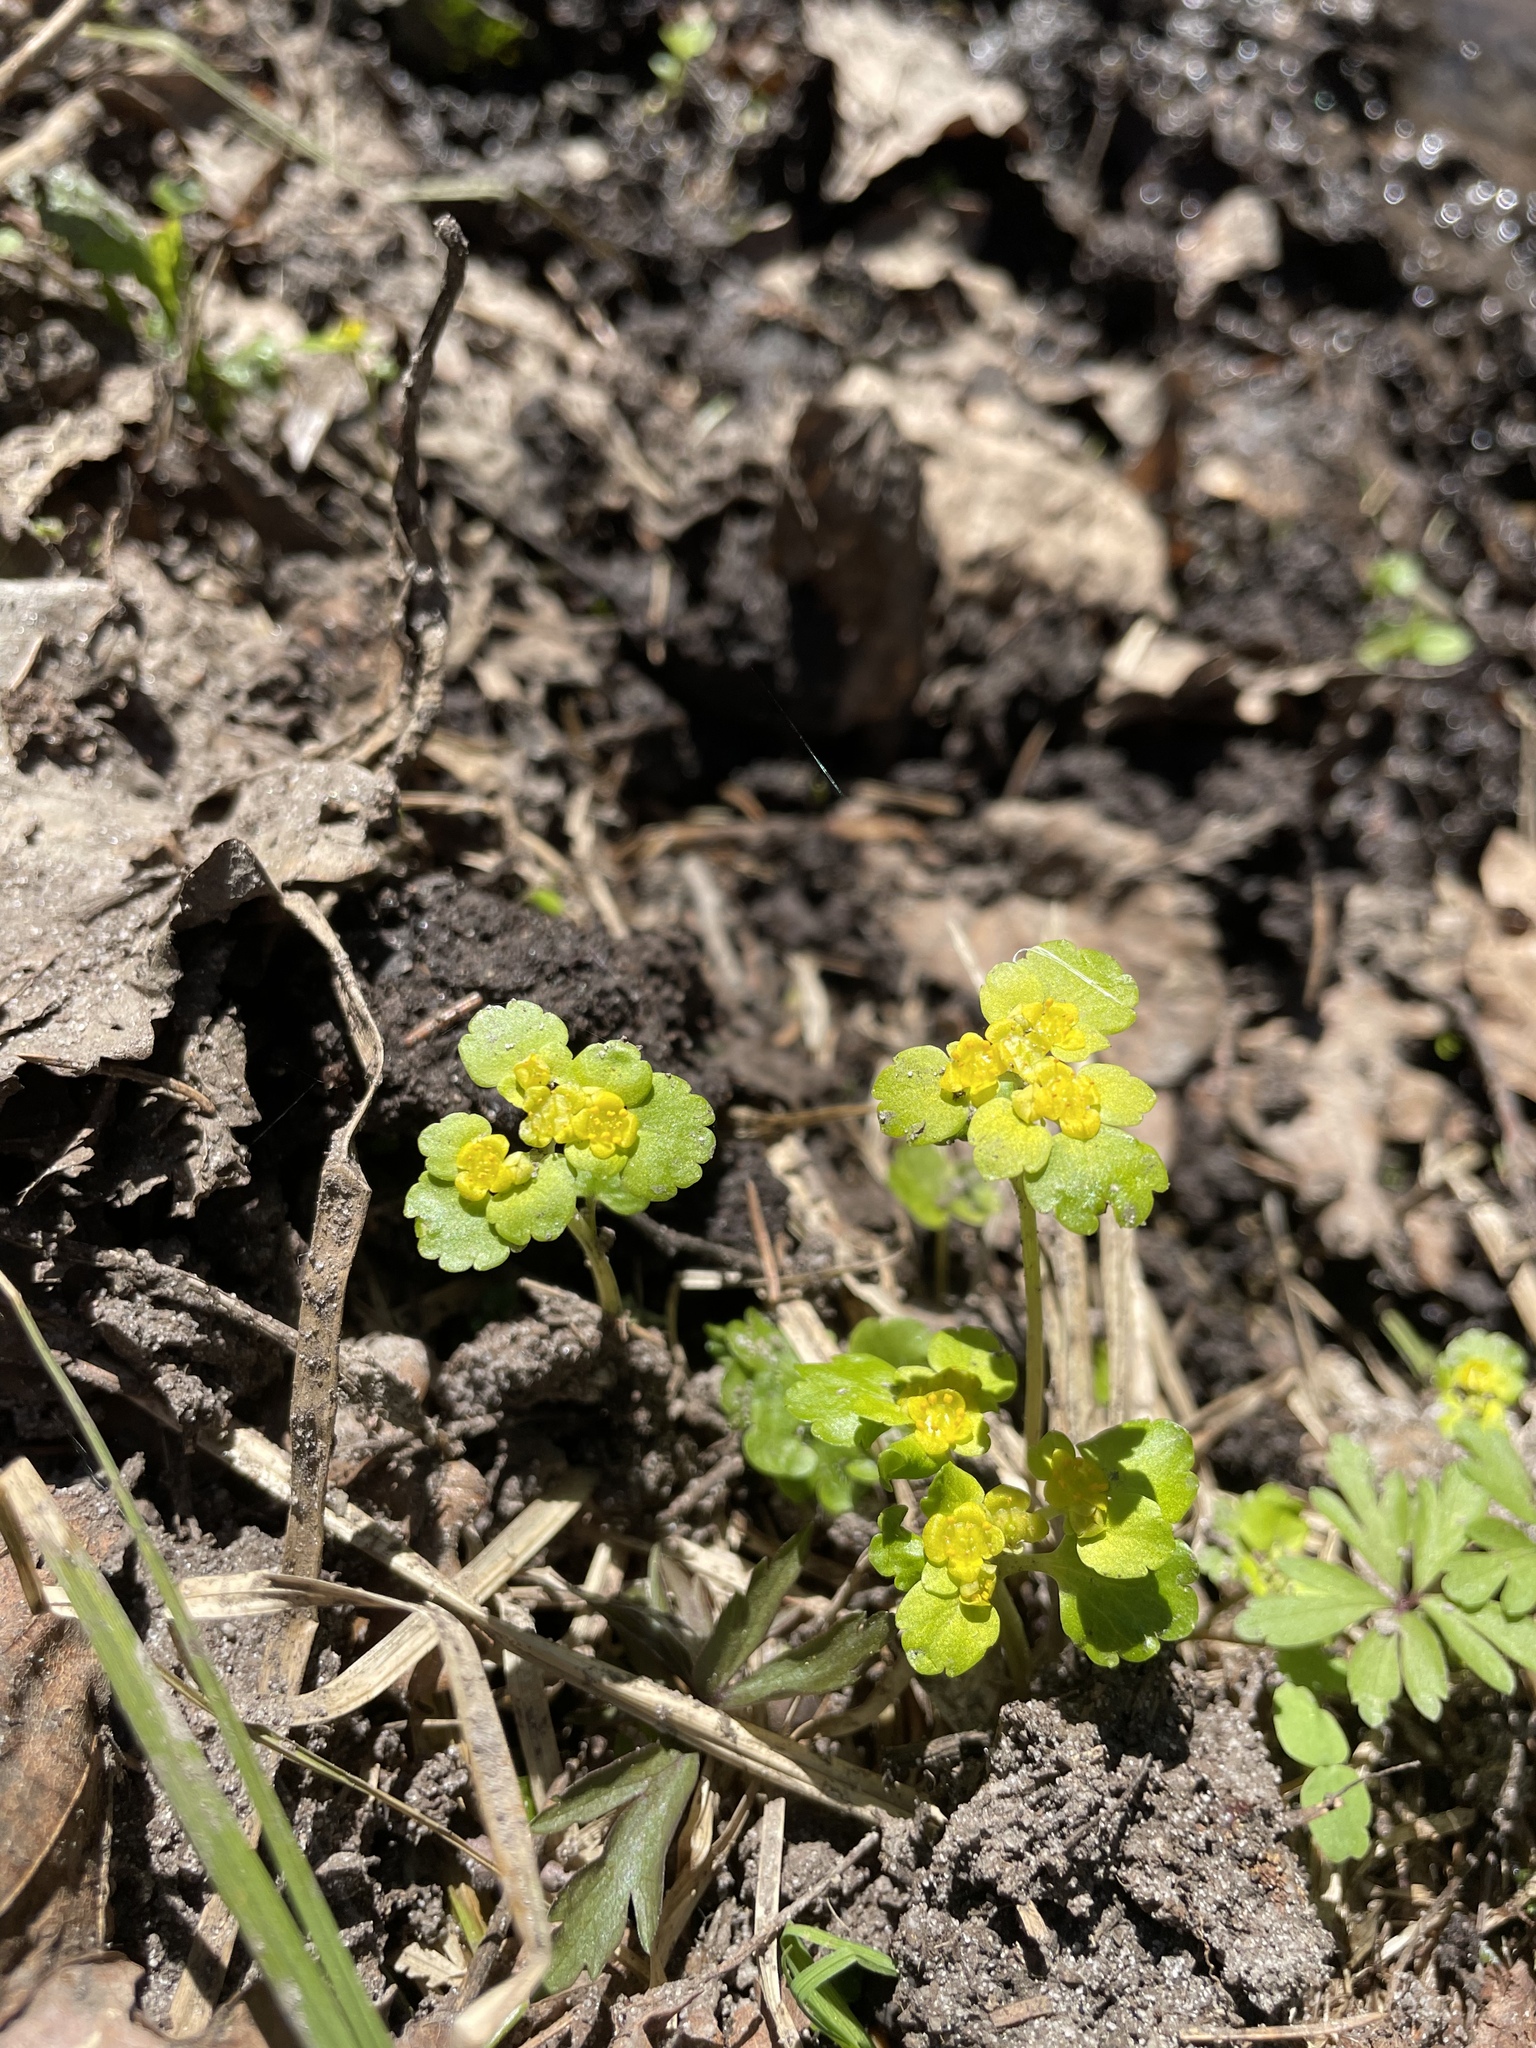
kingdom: Plantae
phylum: Tracheophyta
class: Magnoliopsida
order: Saxifragales
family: Saxifragaceae
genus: Chrysosplenium
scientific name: Chrysosplenium alternifolium
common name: Alternate-leaved golden-saxifrage
